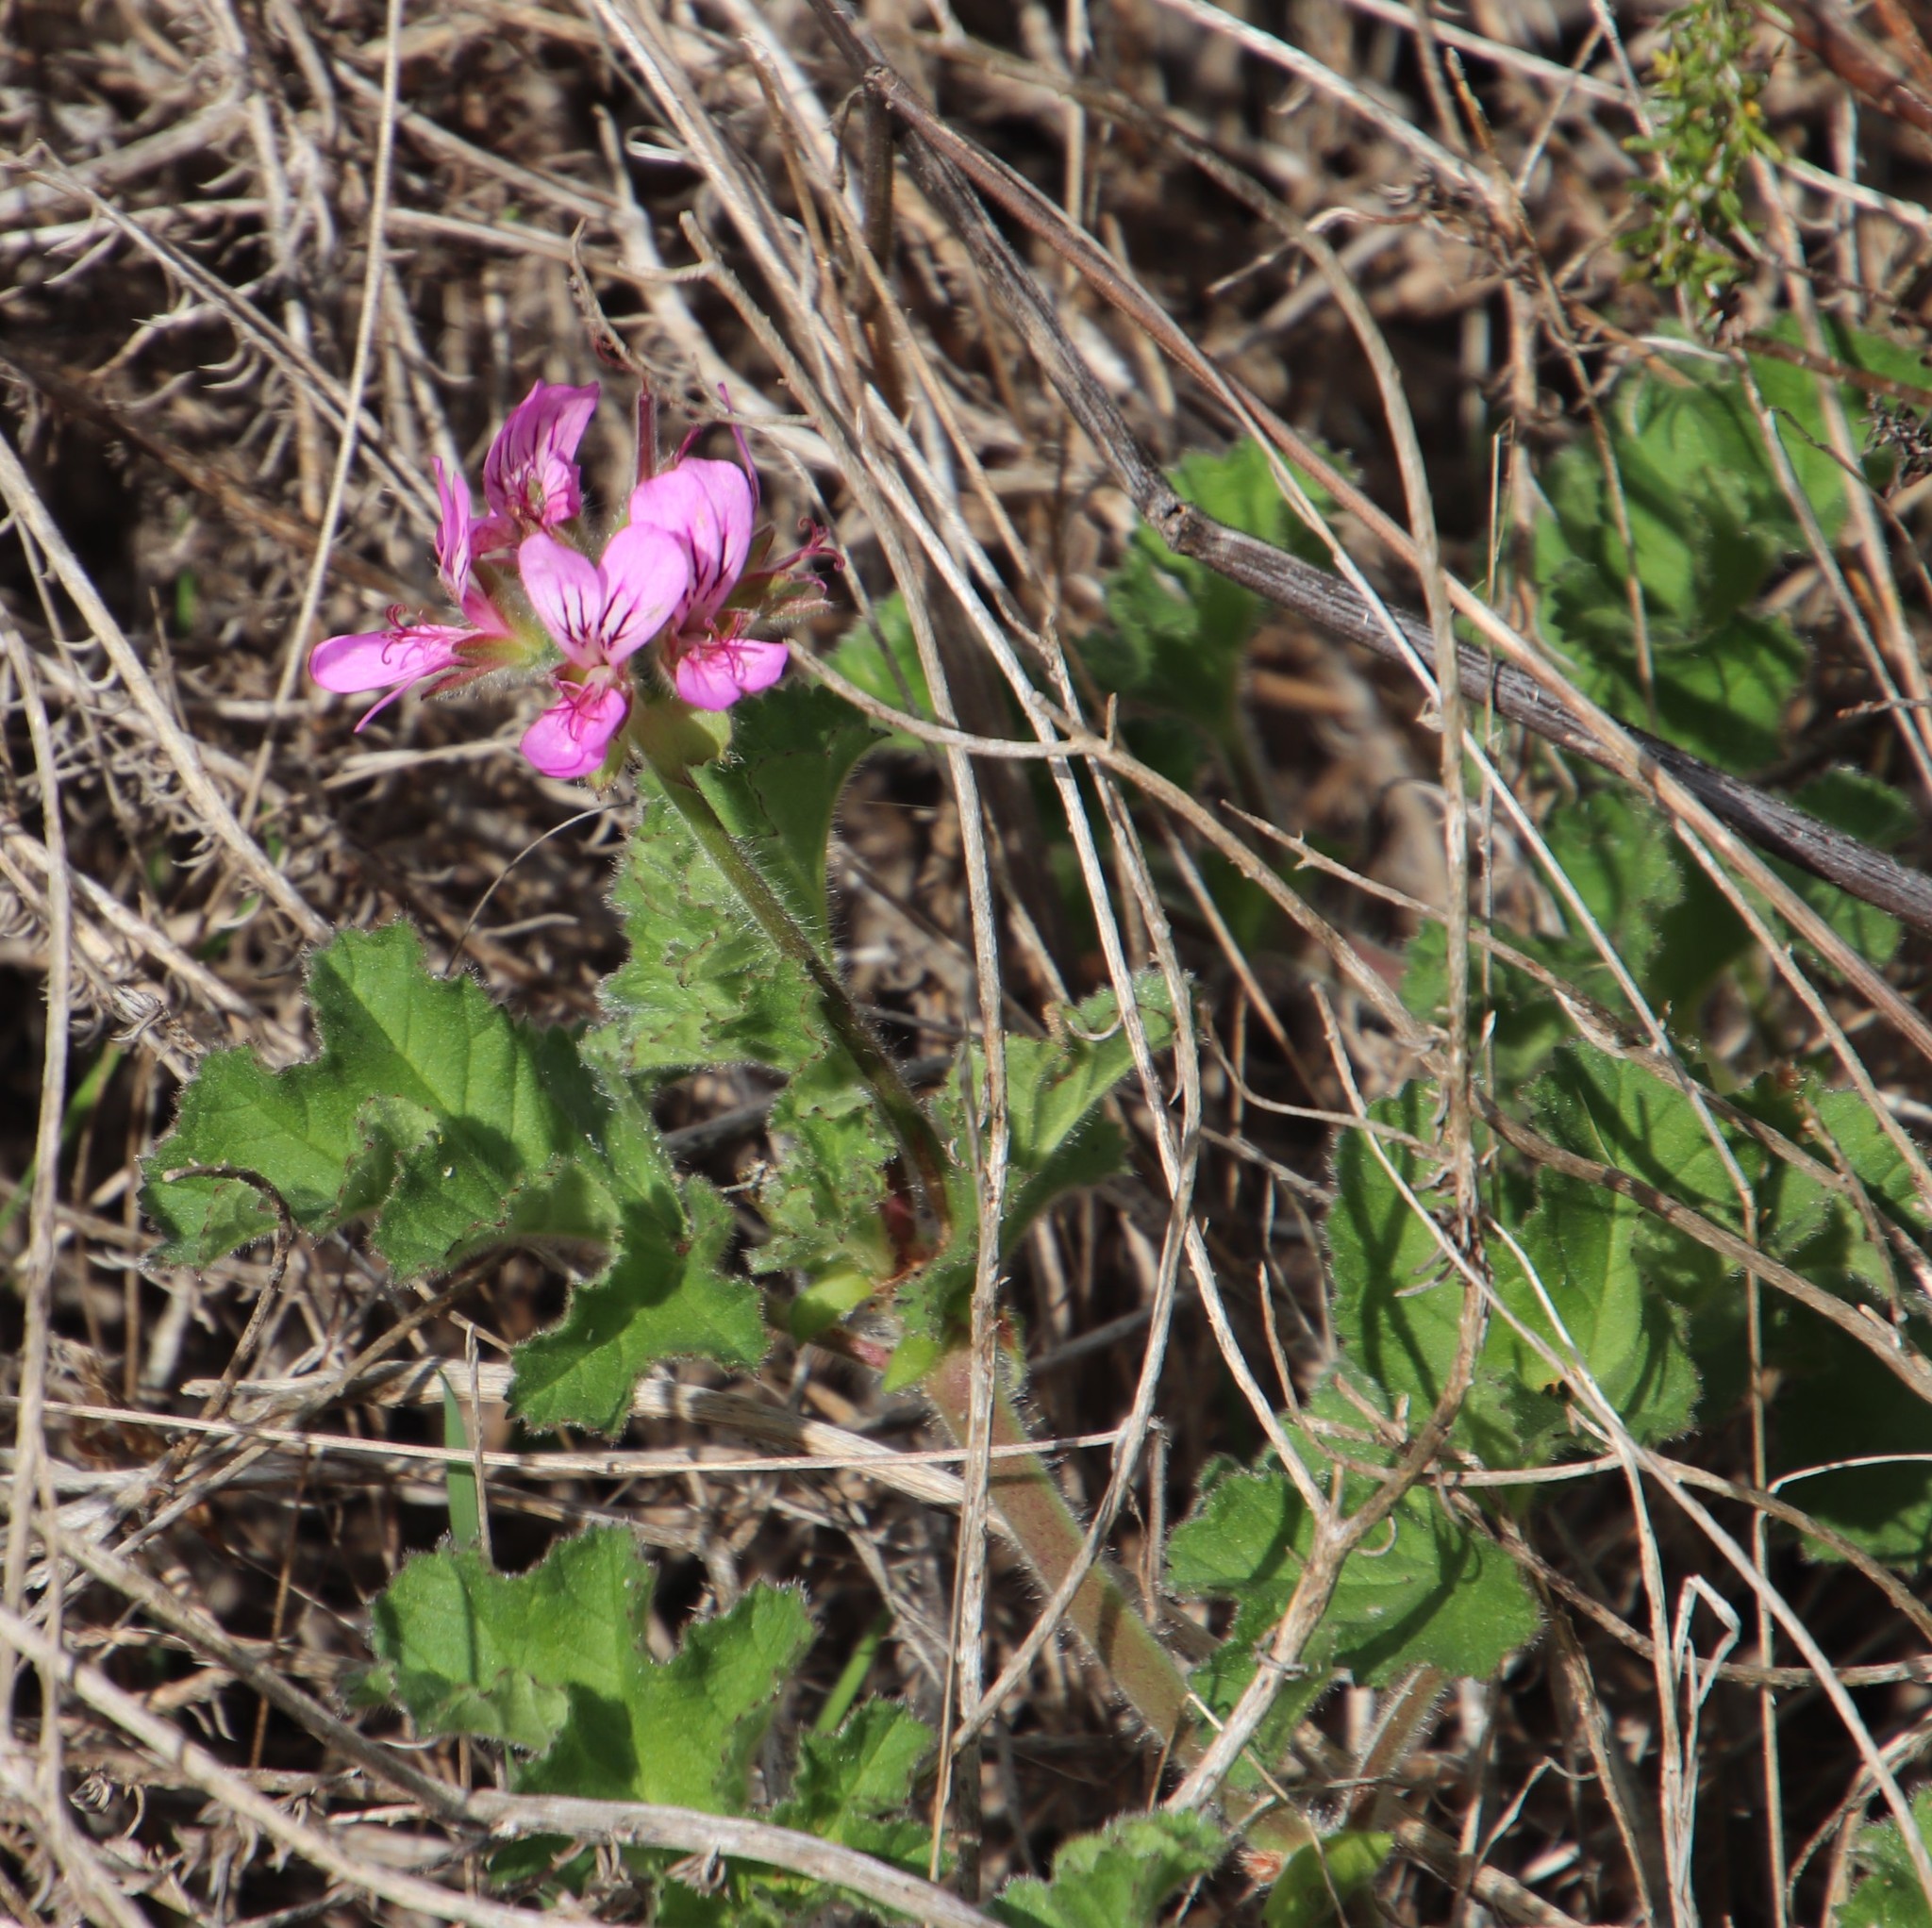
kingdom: Plantae
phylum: Tracheophyta
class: Magnoliopsida
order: Geraniales
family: Geraniaceae
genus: Pelargonium
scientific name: Pelargonium capitatum
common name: Rose scented geranium
